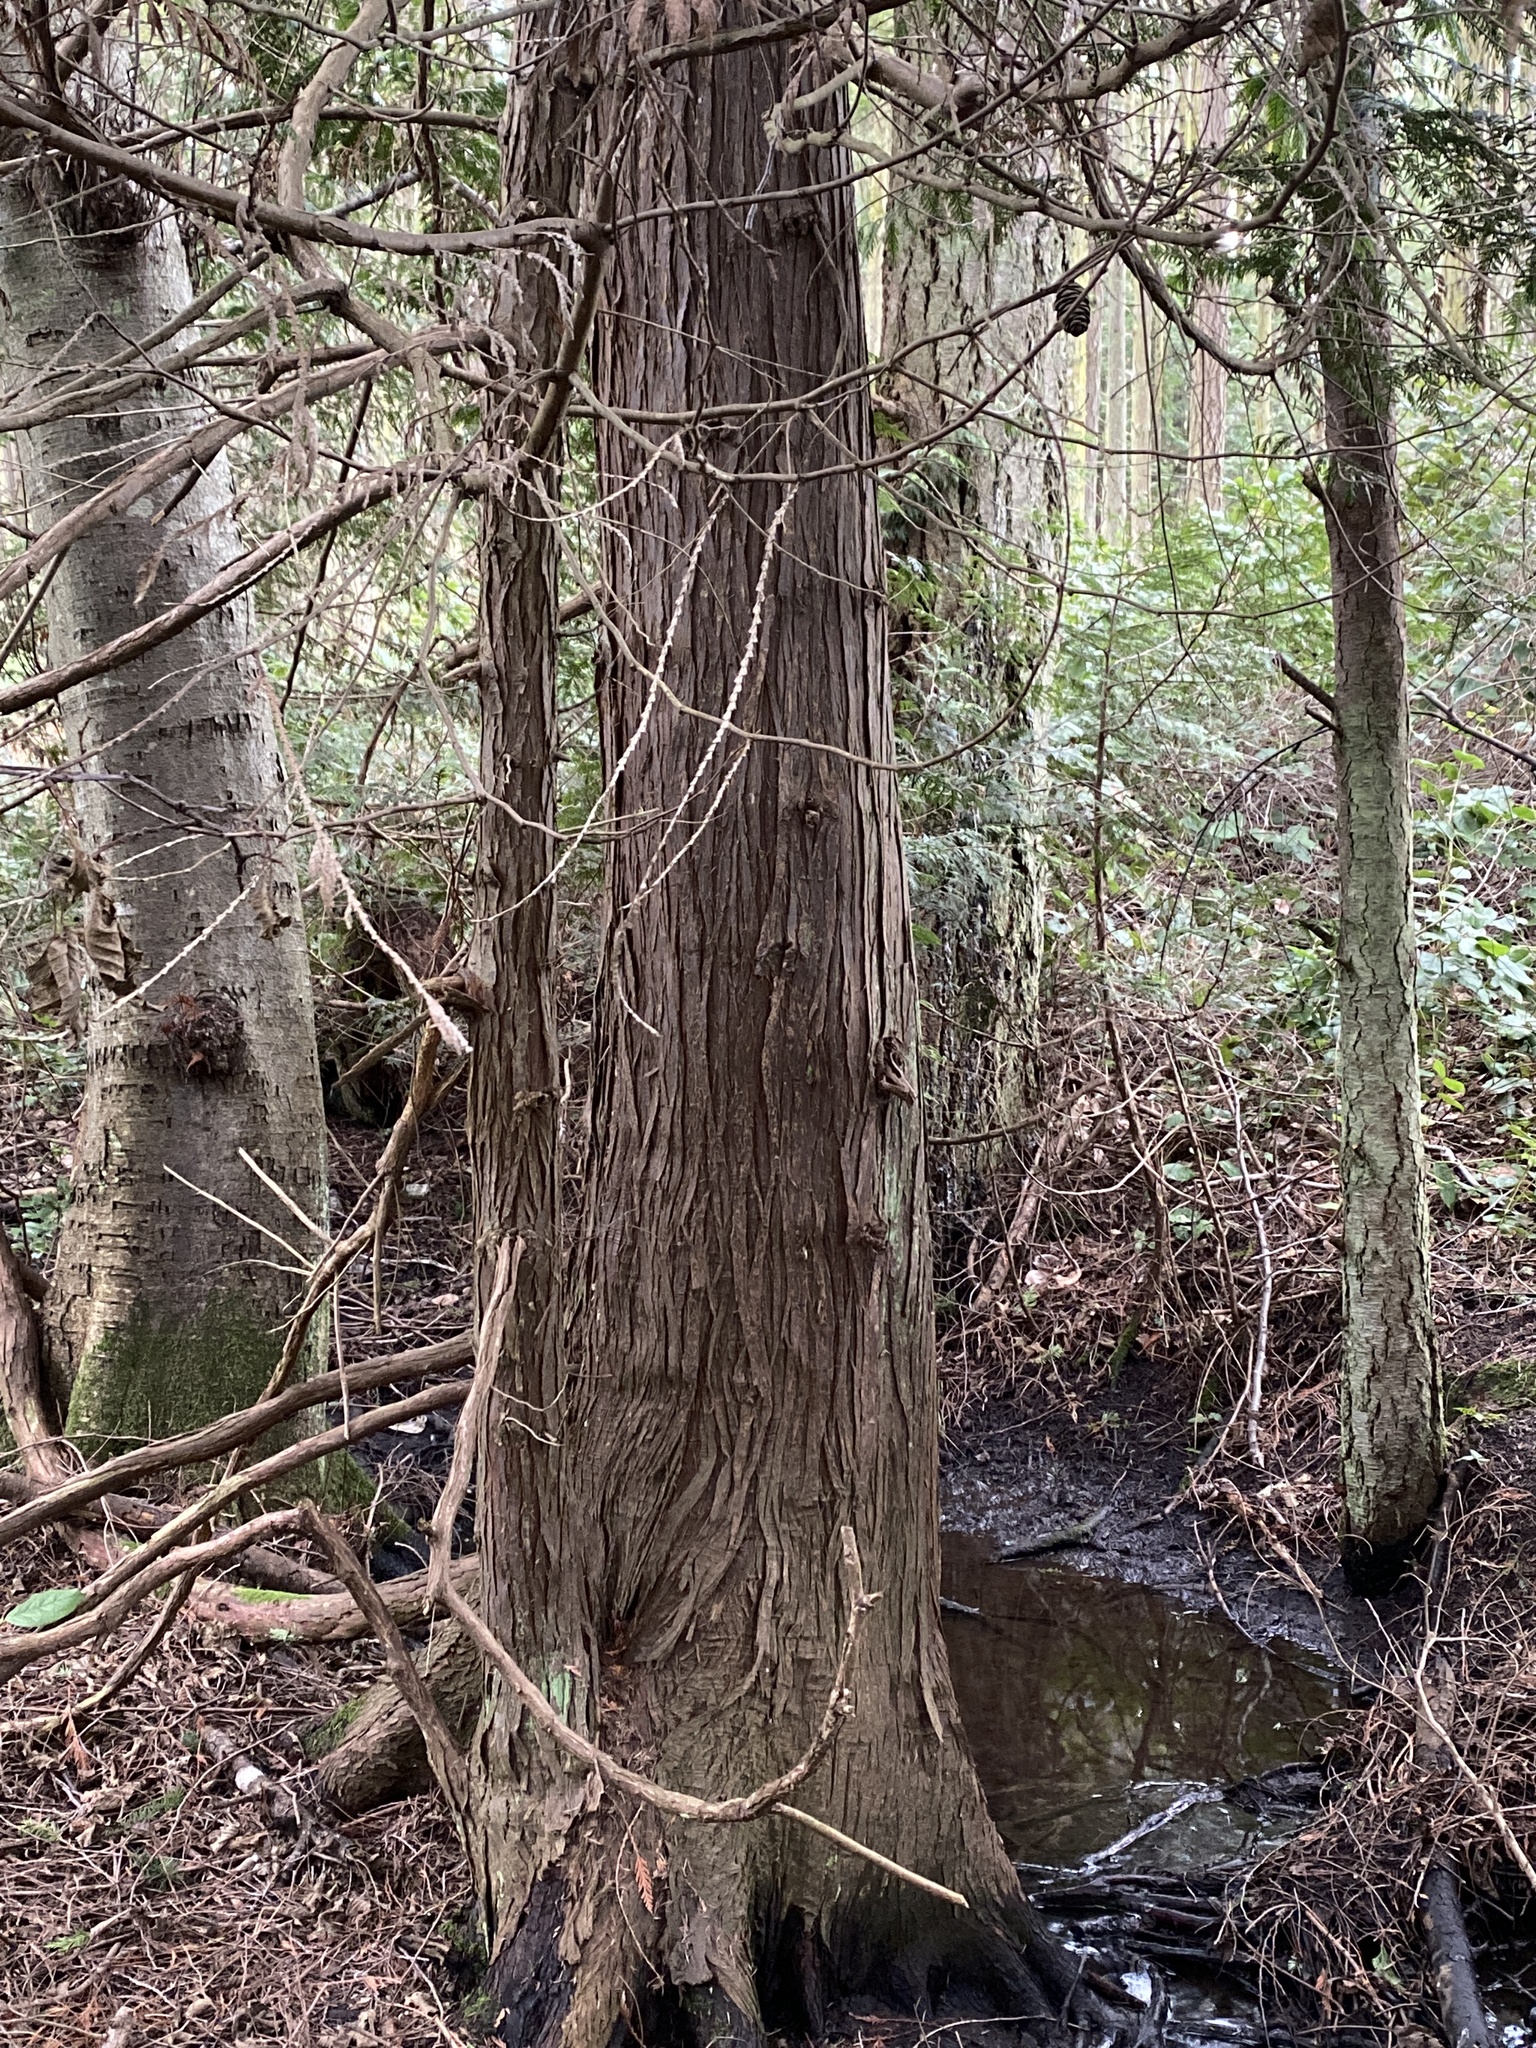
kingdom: Plantae
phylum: Tracheophyta
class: Pinopsida
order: Pinales
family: Cupressaceae
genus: Thuja
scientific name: Thuja plicata
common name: Western red-cedar
